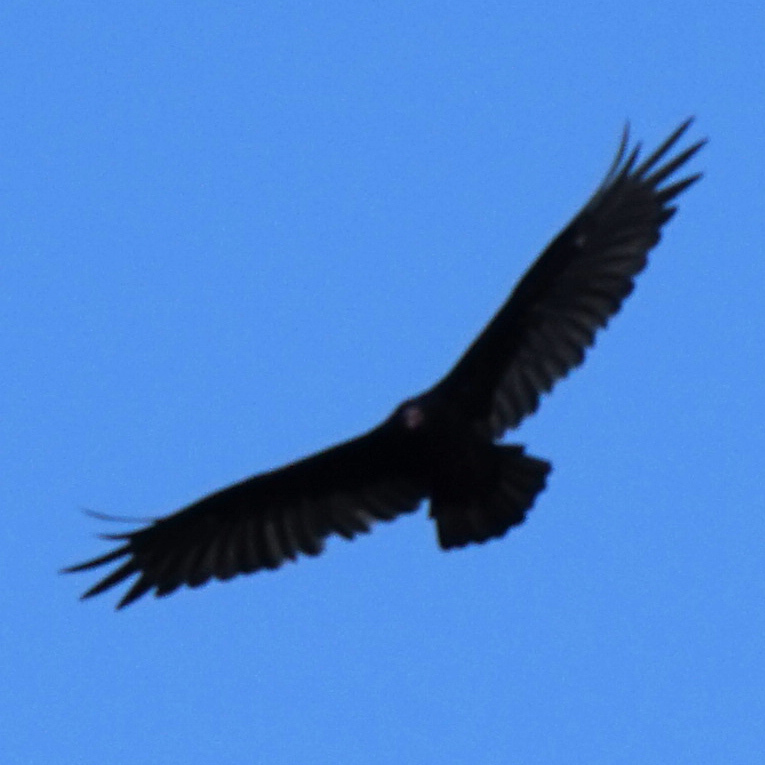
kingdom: Animalia
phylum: Chordata
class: Aves
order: Accipitriformes
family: Cathartidae
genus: Cathartes
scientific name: Cathartes aura
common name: Turkey vulture
